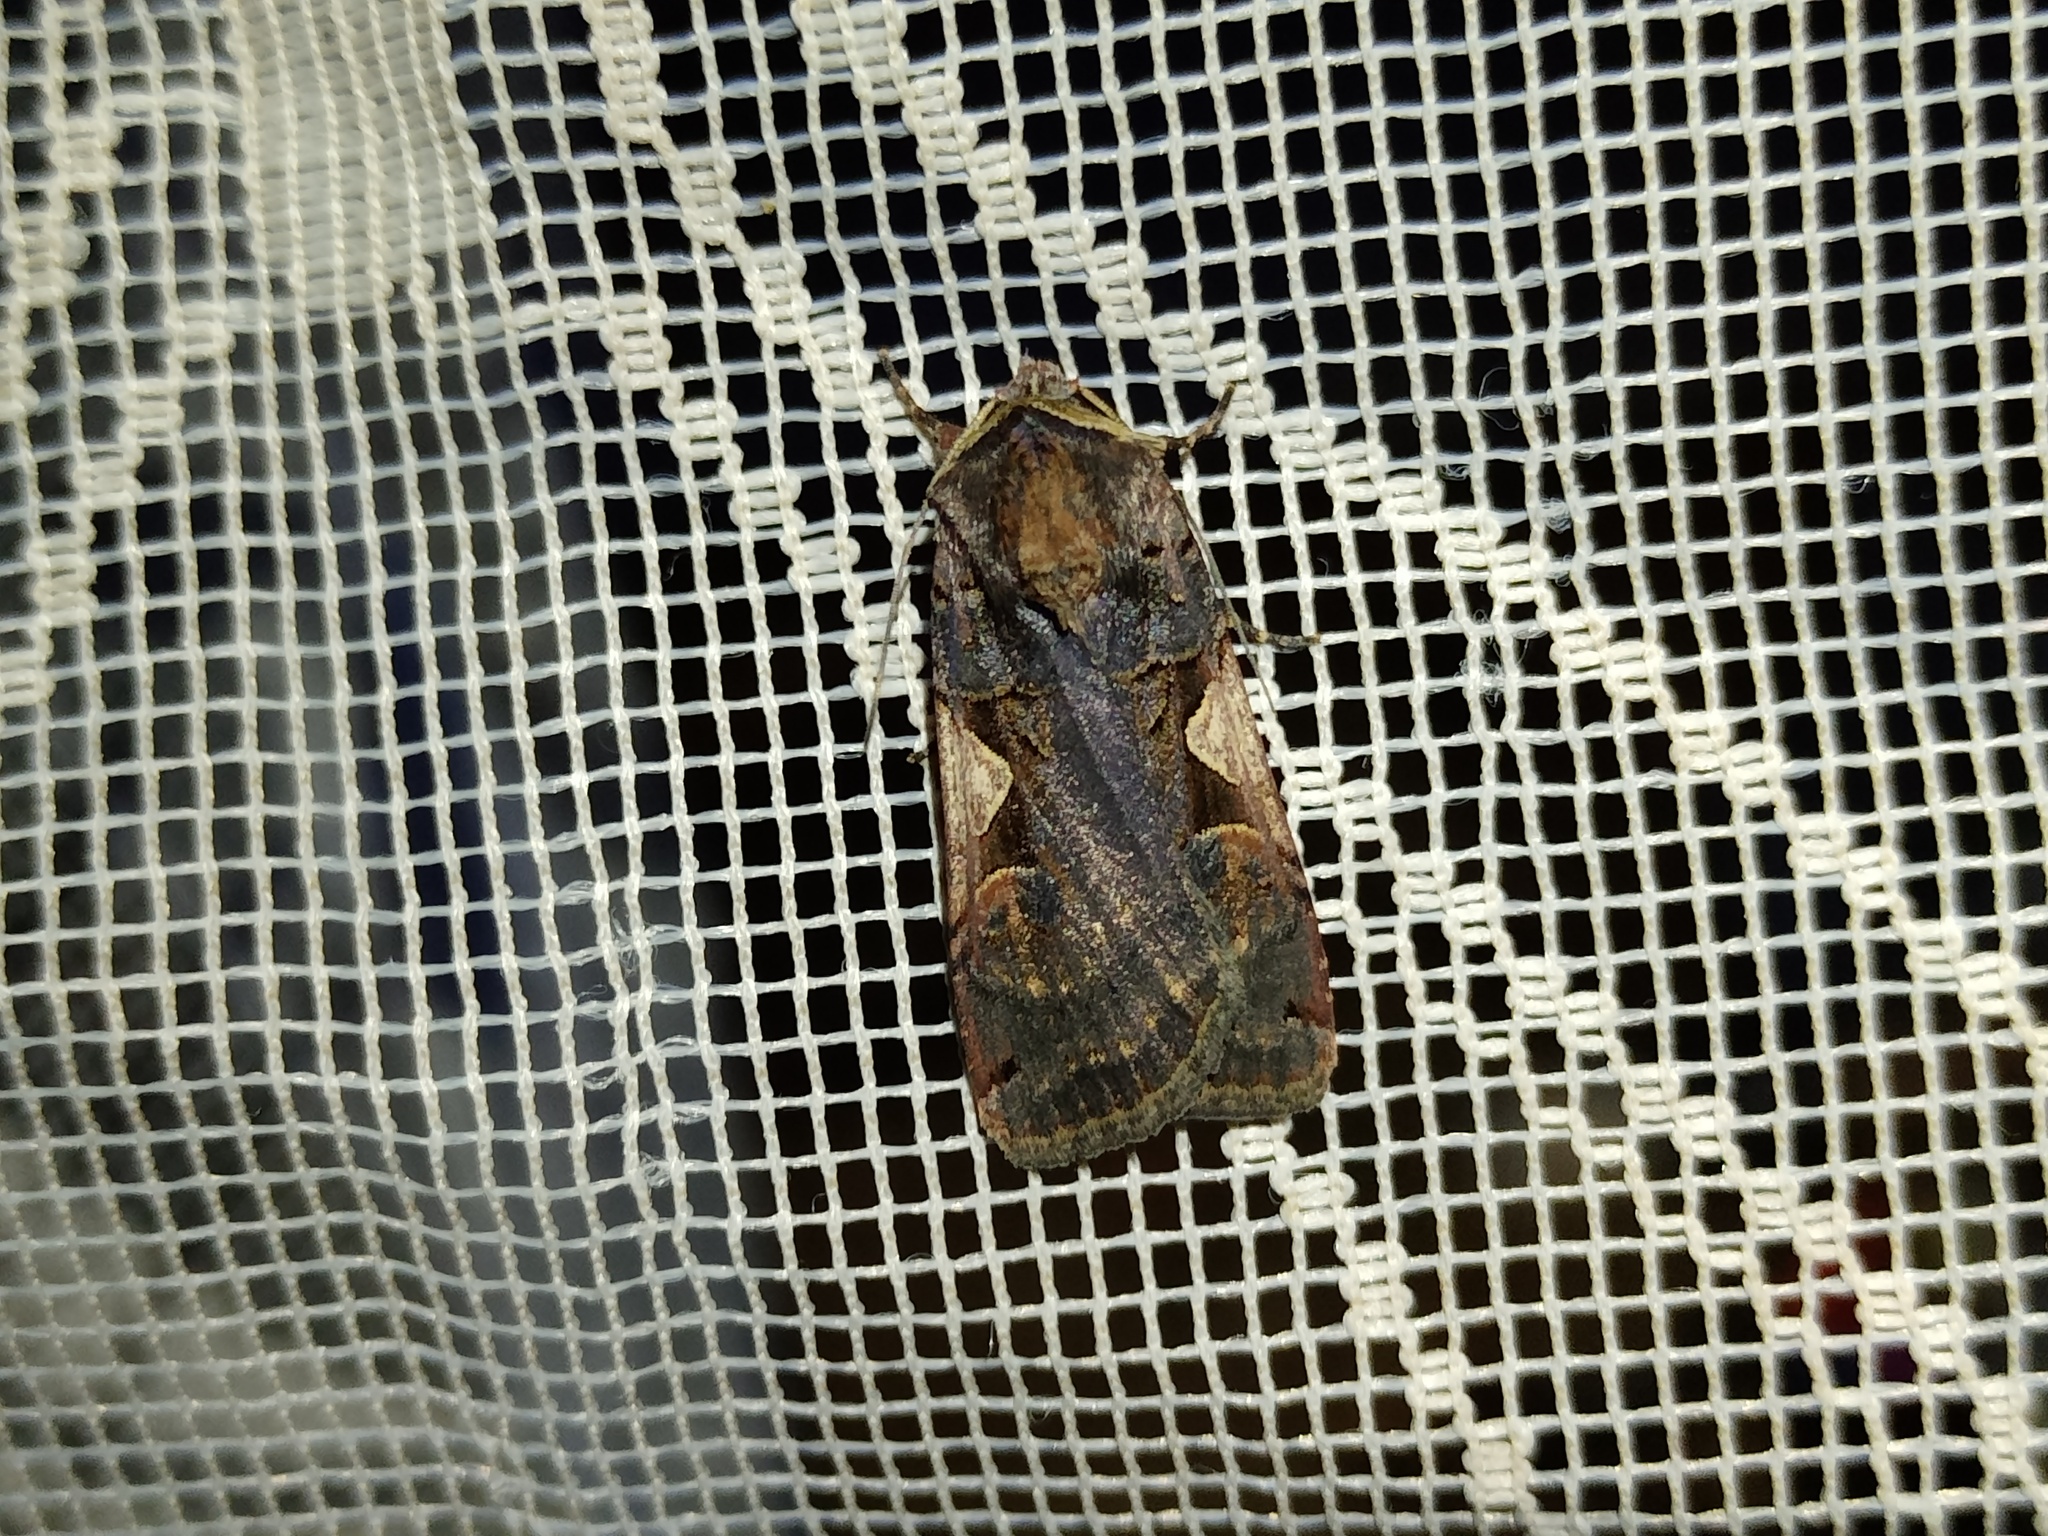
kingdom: Animalia
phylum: Arthropoda
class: Insecta
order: Lepidoptera
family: Noctuidae
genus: Xestia
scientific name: Xestia c-nigrum
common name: Setaceous hebrew character
